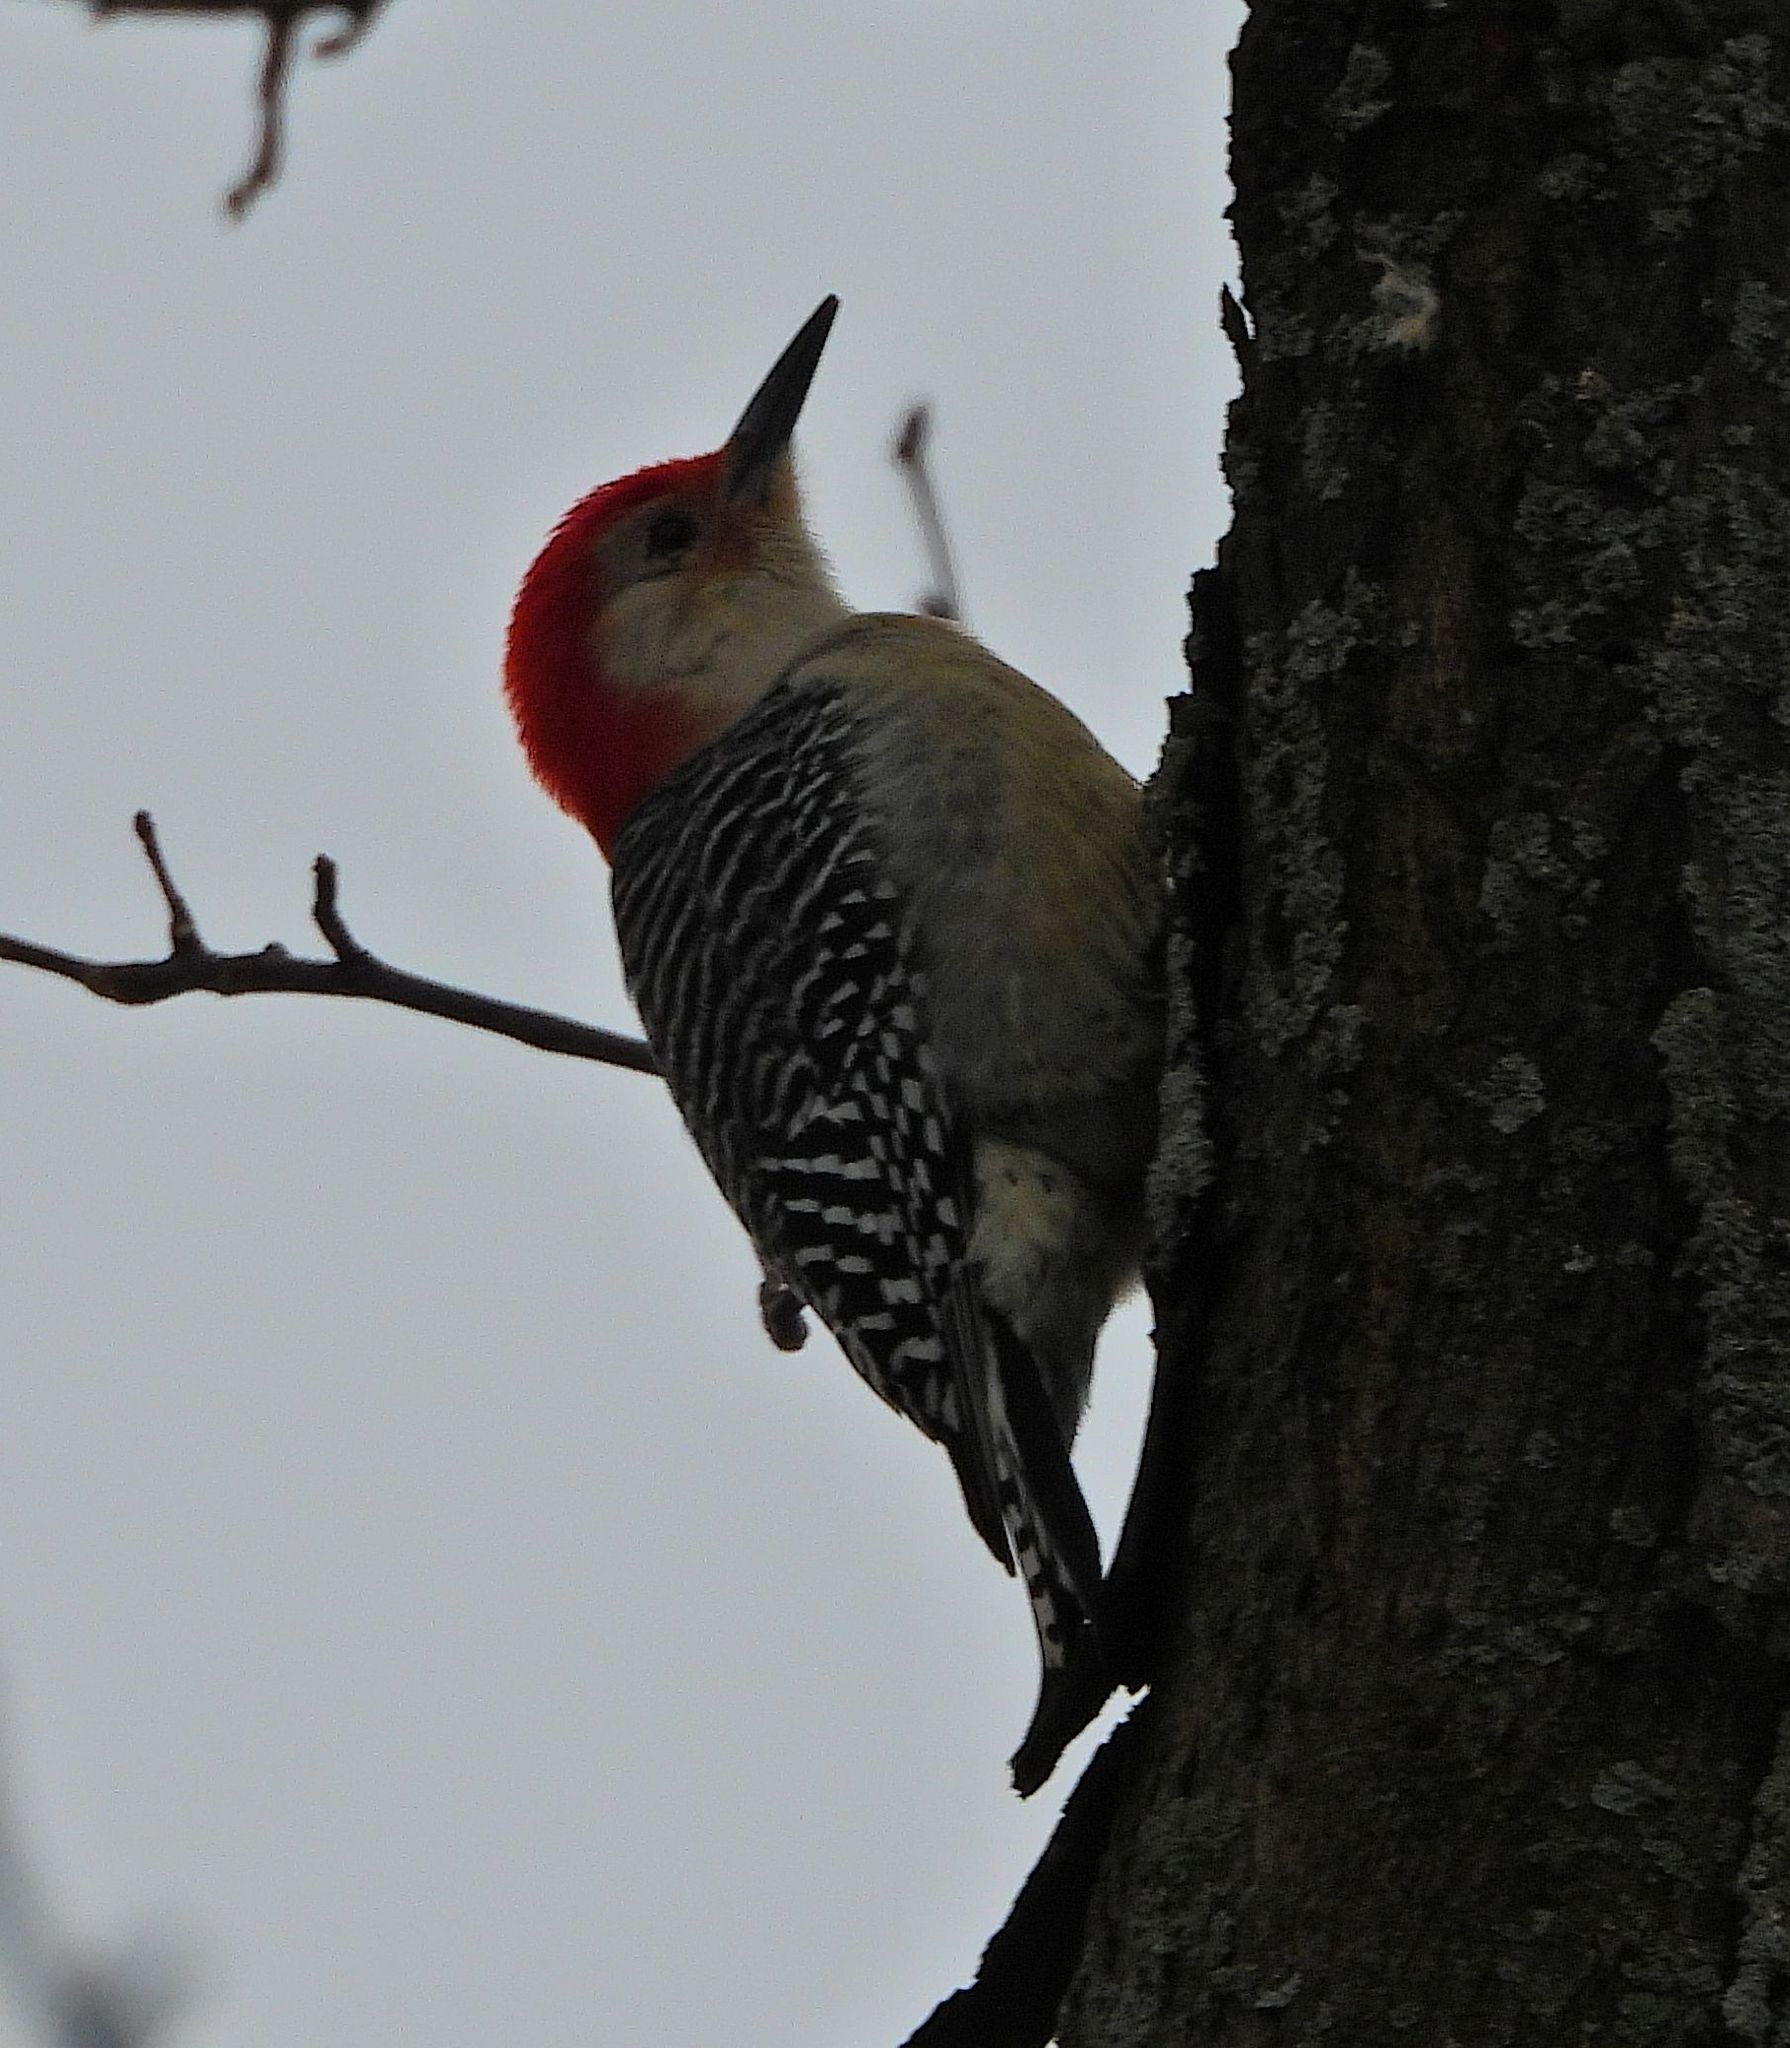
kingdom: Animalia
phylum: Chordata
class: Aves
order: Piciformes
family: Picidae
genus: Melanerpes
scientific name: Melanerpes carolinus
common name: Red-bellied woodpecker
